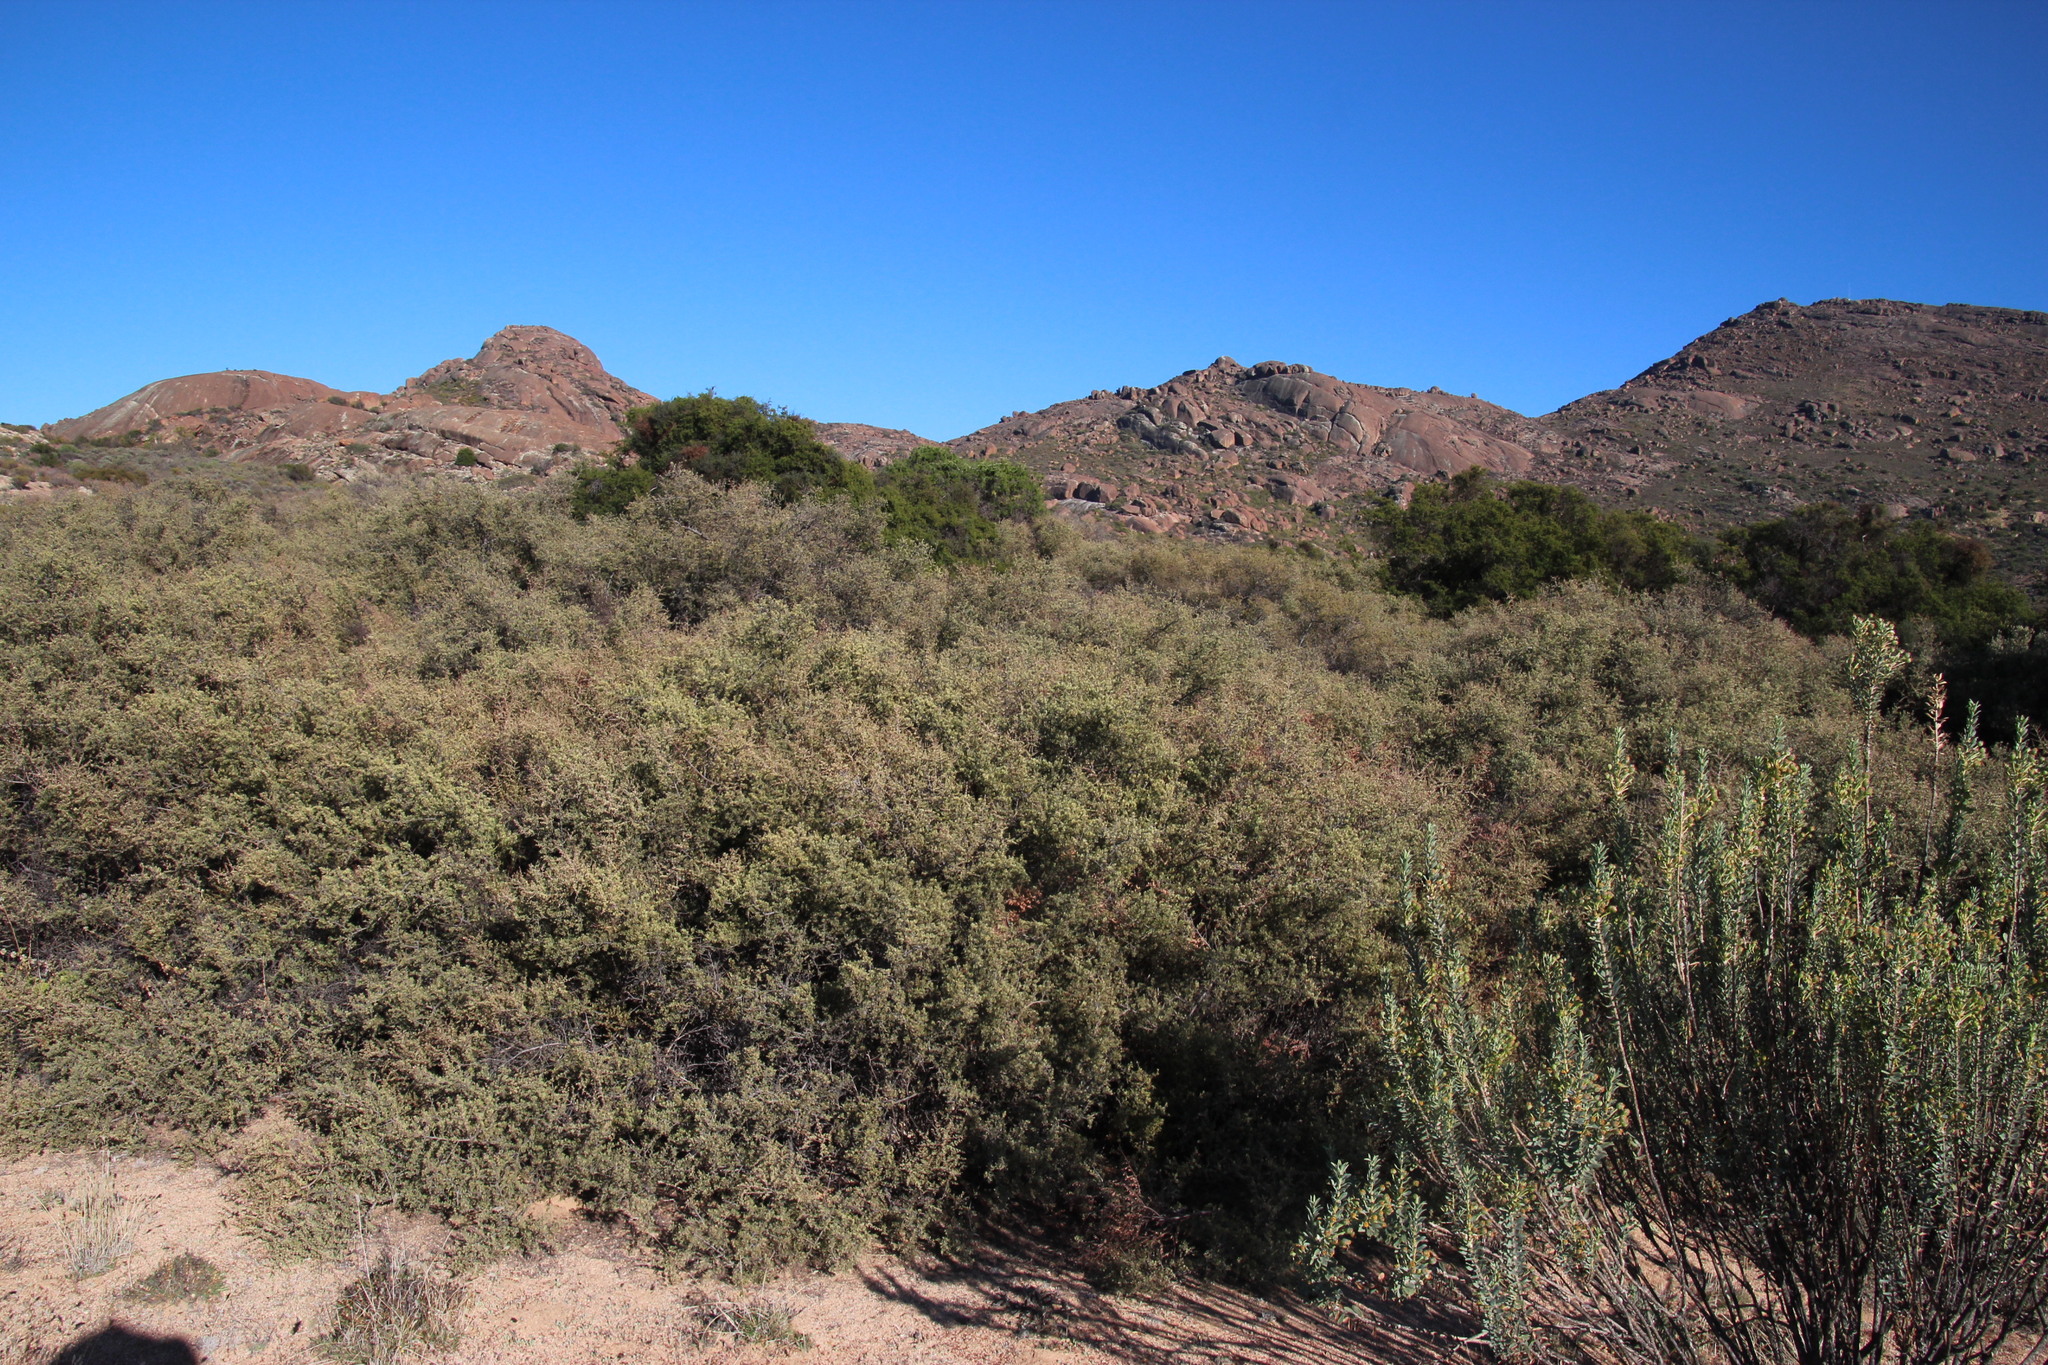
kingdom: Plantae
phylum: Tracheophyta
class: Magnoliopsida
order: Sapindales
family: Anacardiaceae
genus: Searsia
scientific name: Searsia horrida
